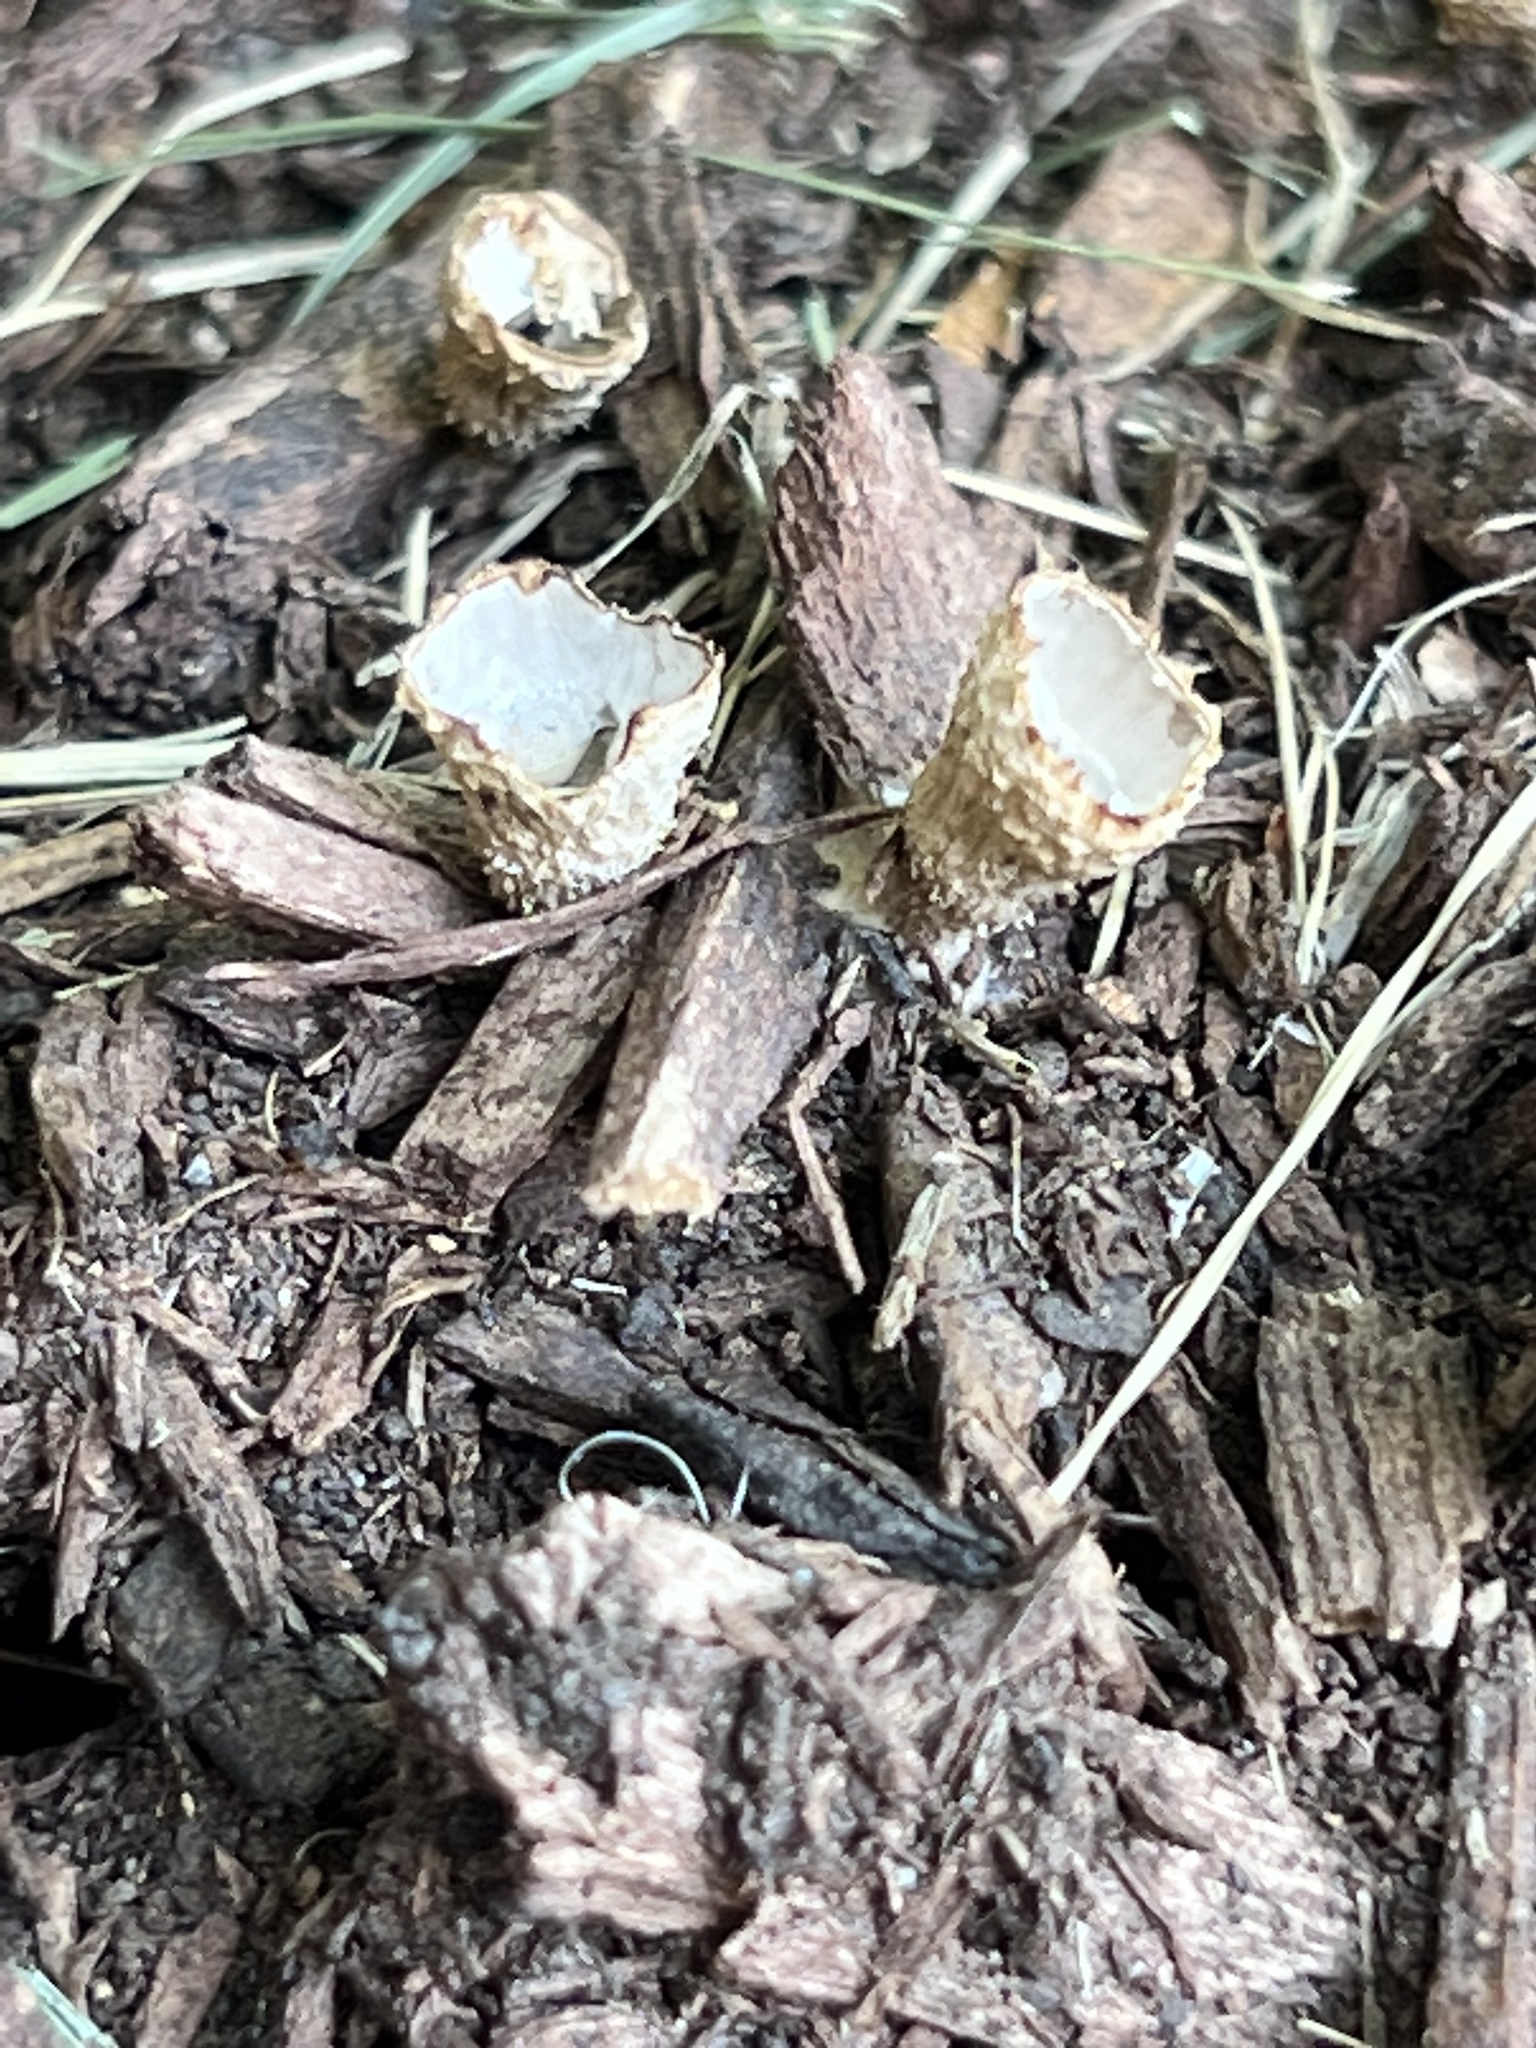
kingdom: Fungi
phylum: Basidiomycota
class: Agaricomycetes
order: Agaricales
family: Nidulariaceae
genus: Crucibulum
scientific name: Crucibulum laeve
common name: Common bird's nest
